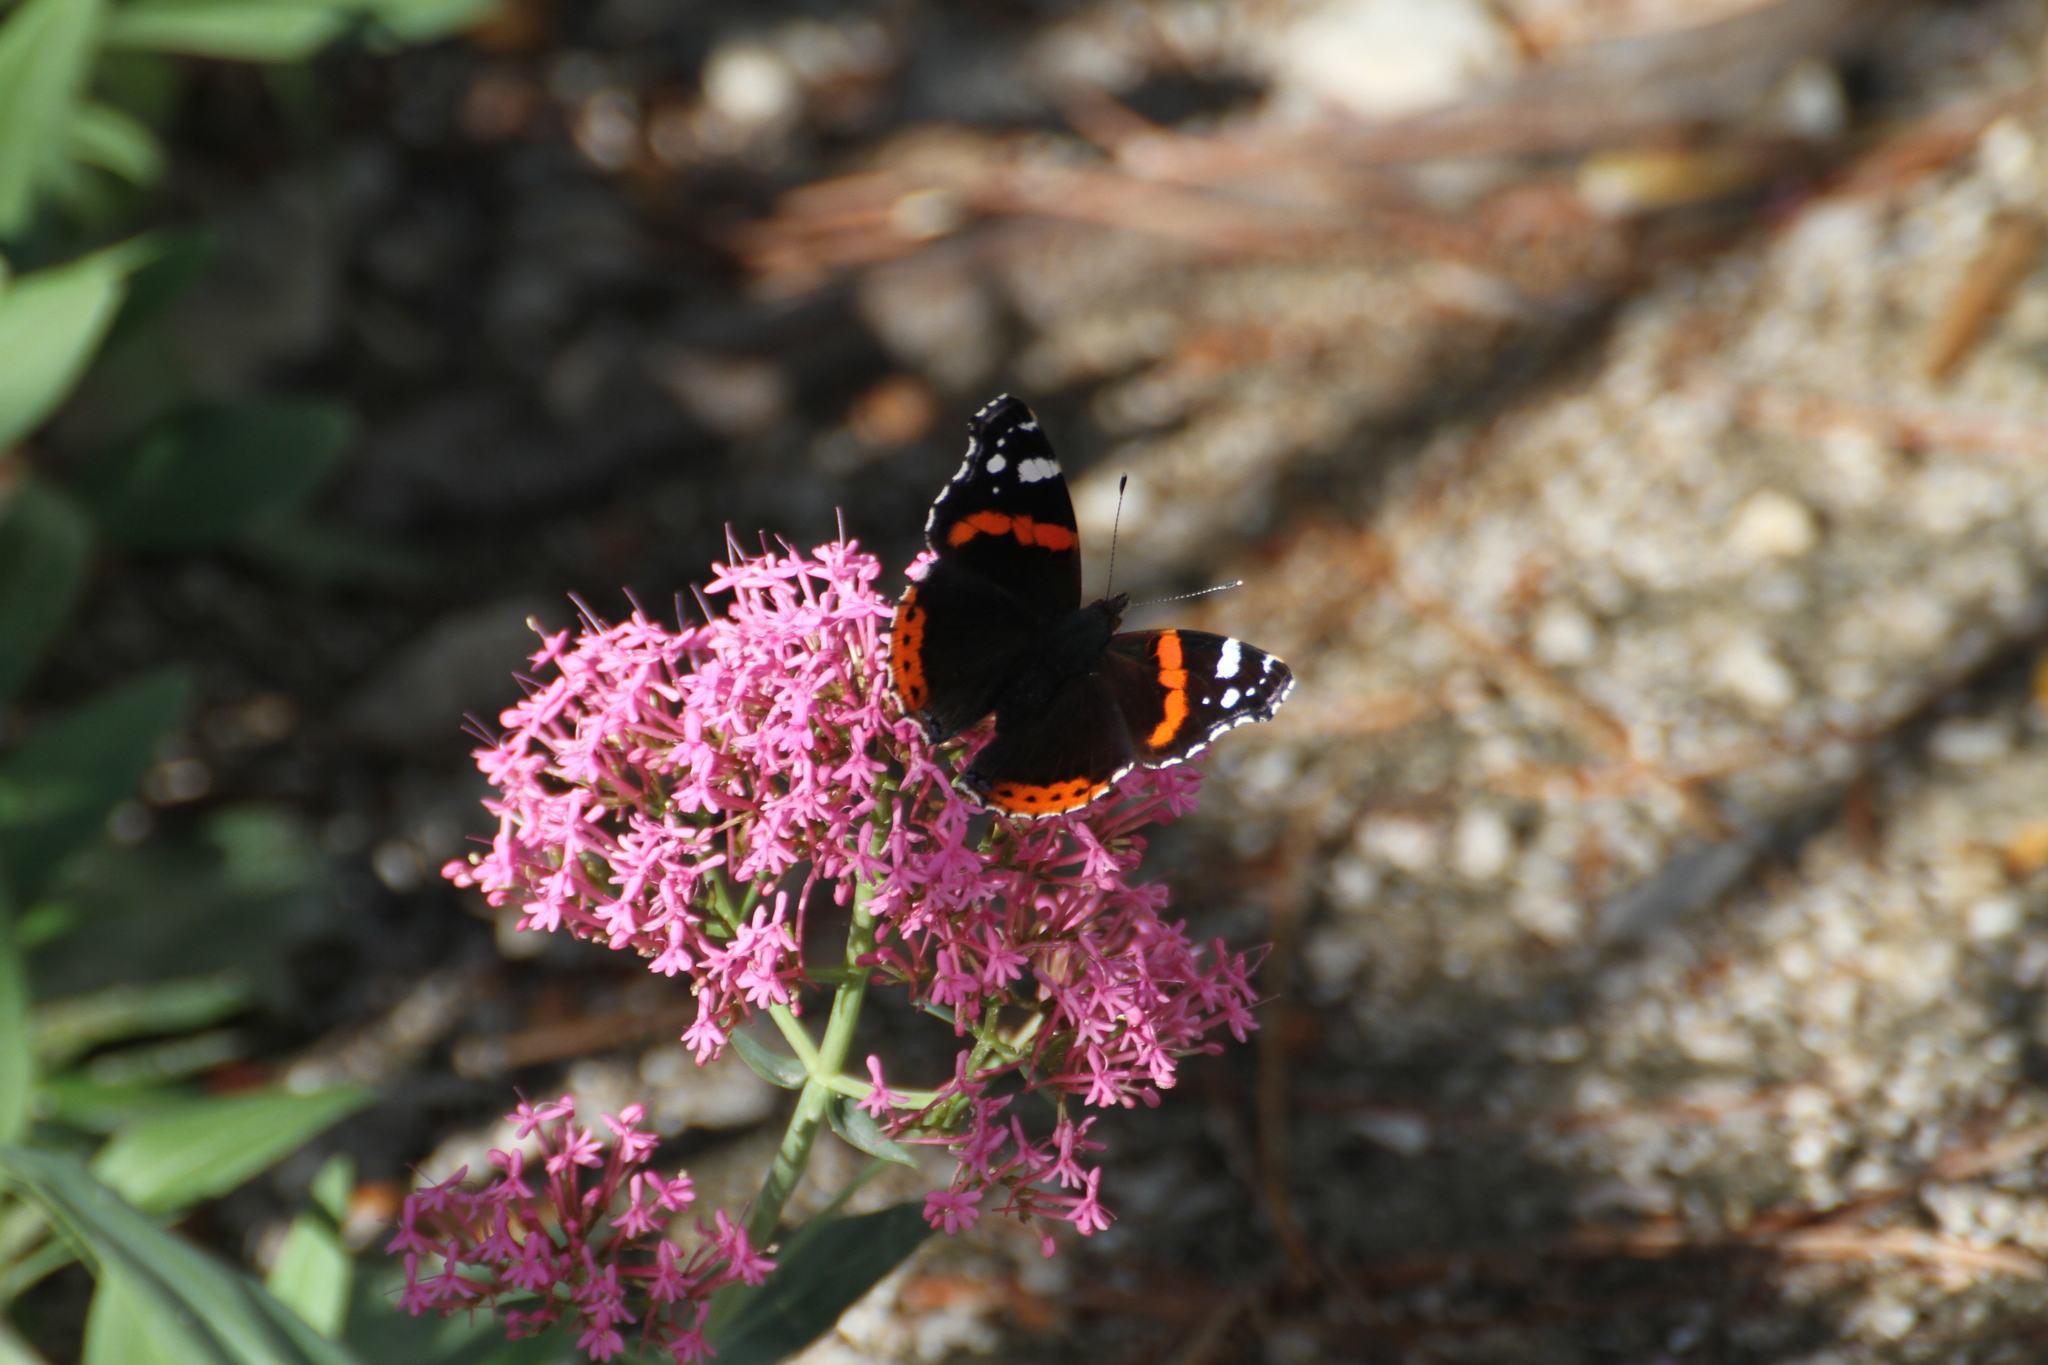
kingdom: Animalia
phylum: Arthropoda
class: Insecta
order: Lepidoptera
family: Nymphalidae
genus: Vanessa
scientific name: Vanessa atalanta
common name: Red admiral
